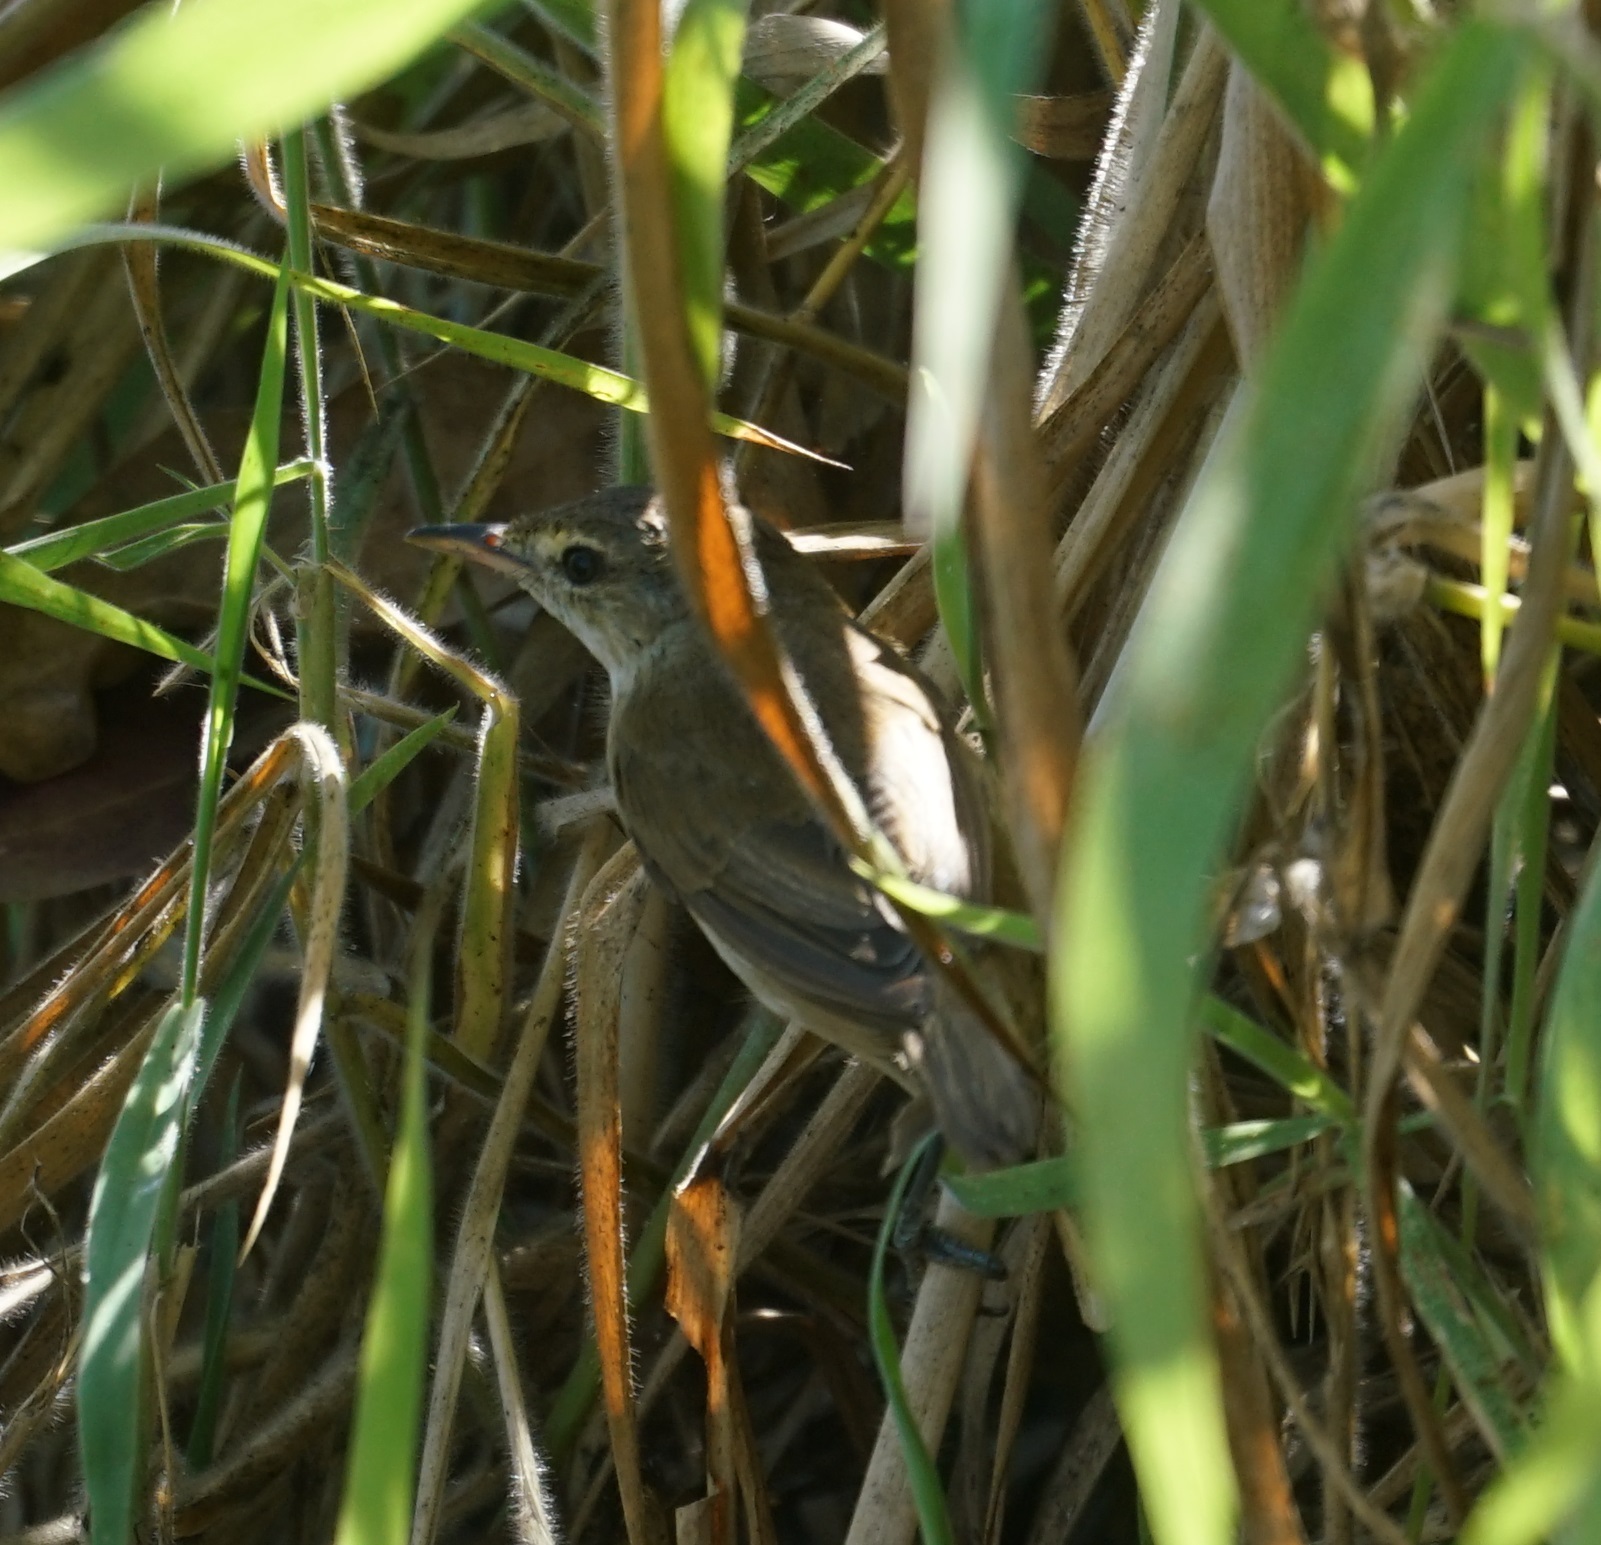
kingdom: Animalia
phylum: Chordata
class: Aves
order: Passeriformes
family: Acrocephalidae
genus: Acrocephalus
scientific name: Acrocephalus australis
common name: Australian reed warbler
